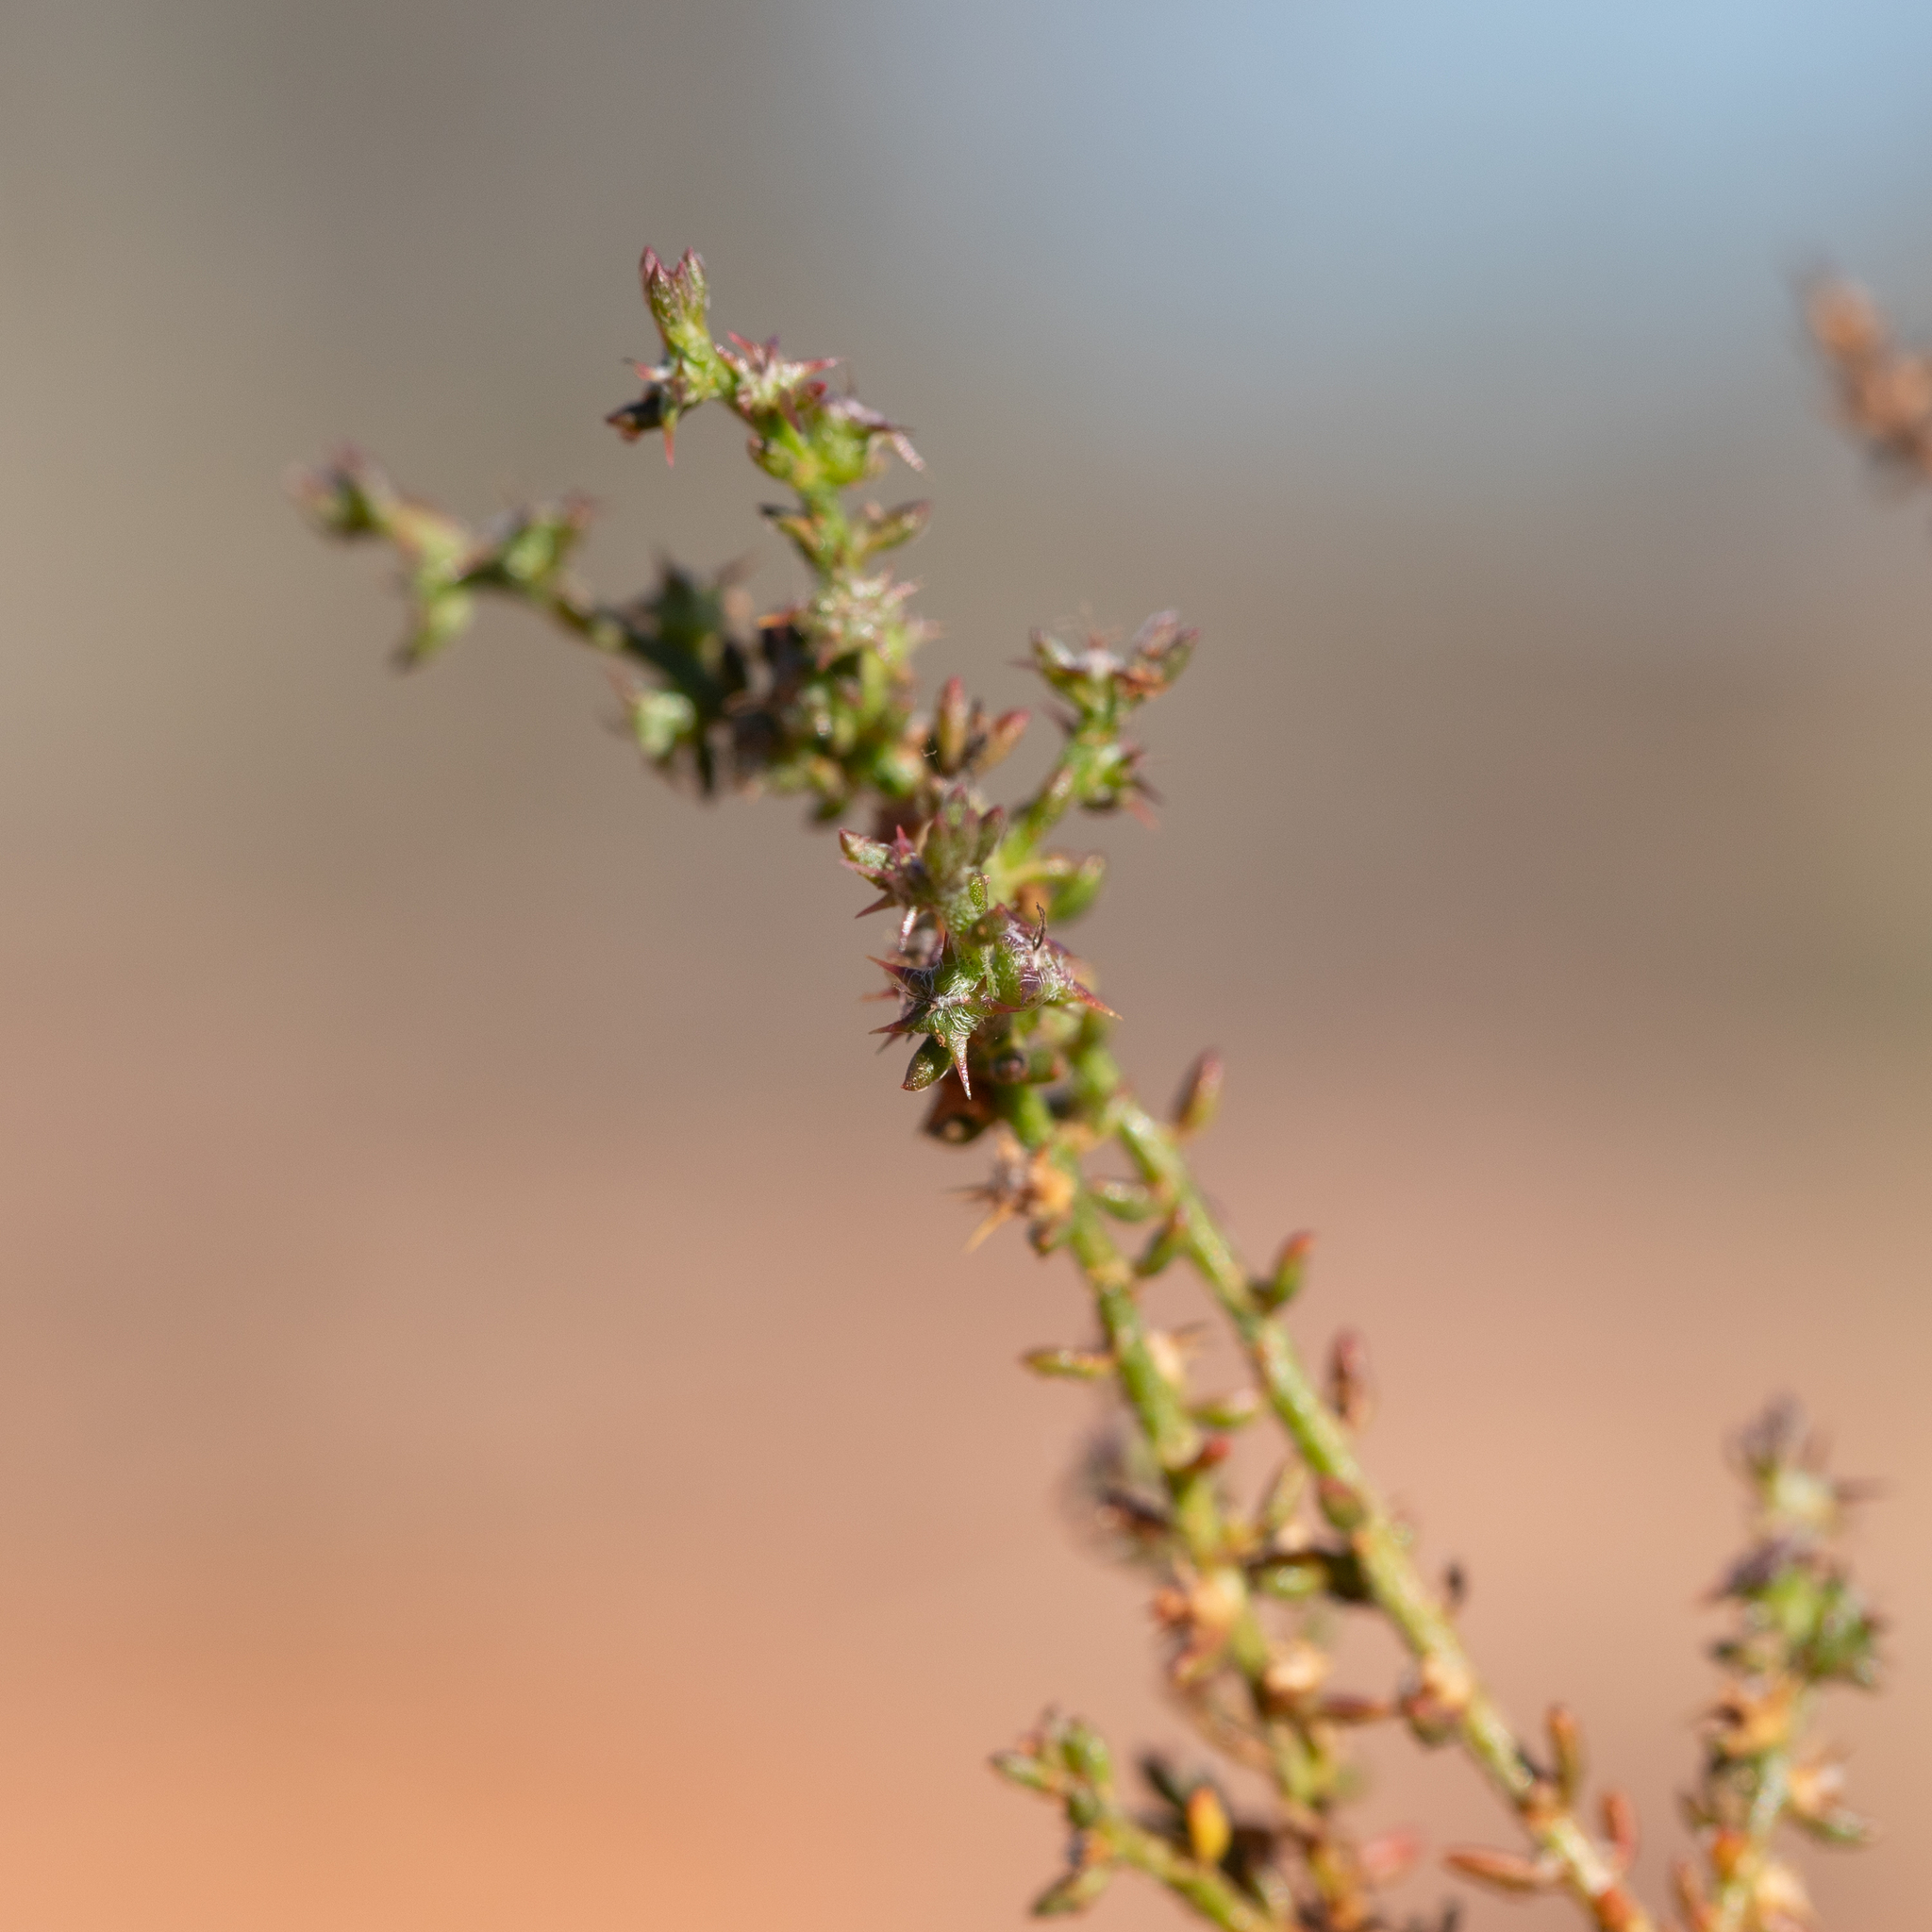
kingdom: Plantae
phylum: Tracheophyta
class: Magnoliopsida
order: Caryophyllales
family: Amaranthaceae
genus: Sclerolaena
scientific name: Sclerolaena parviflora
